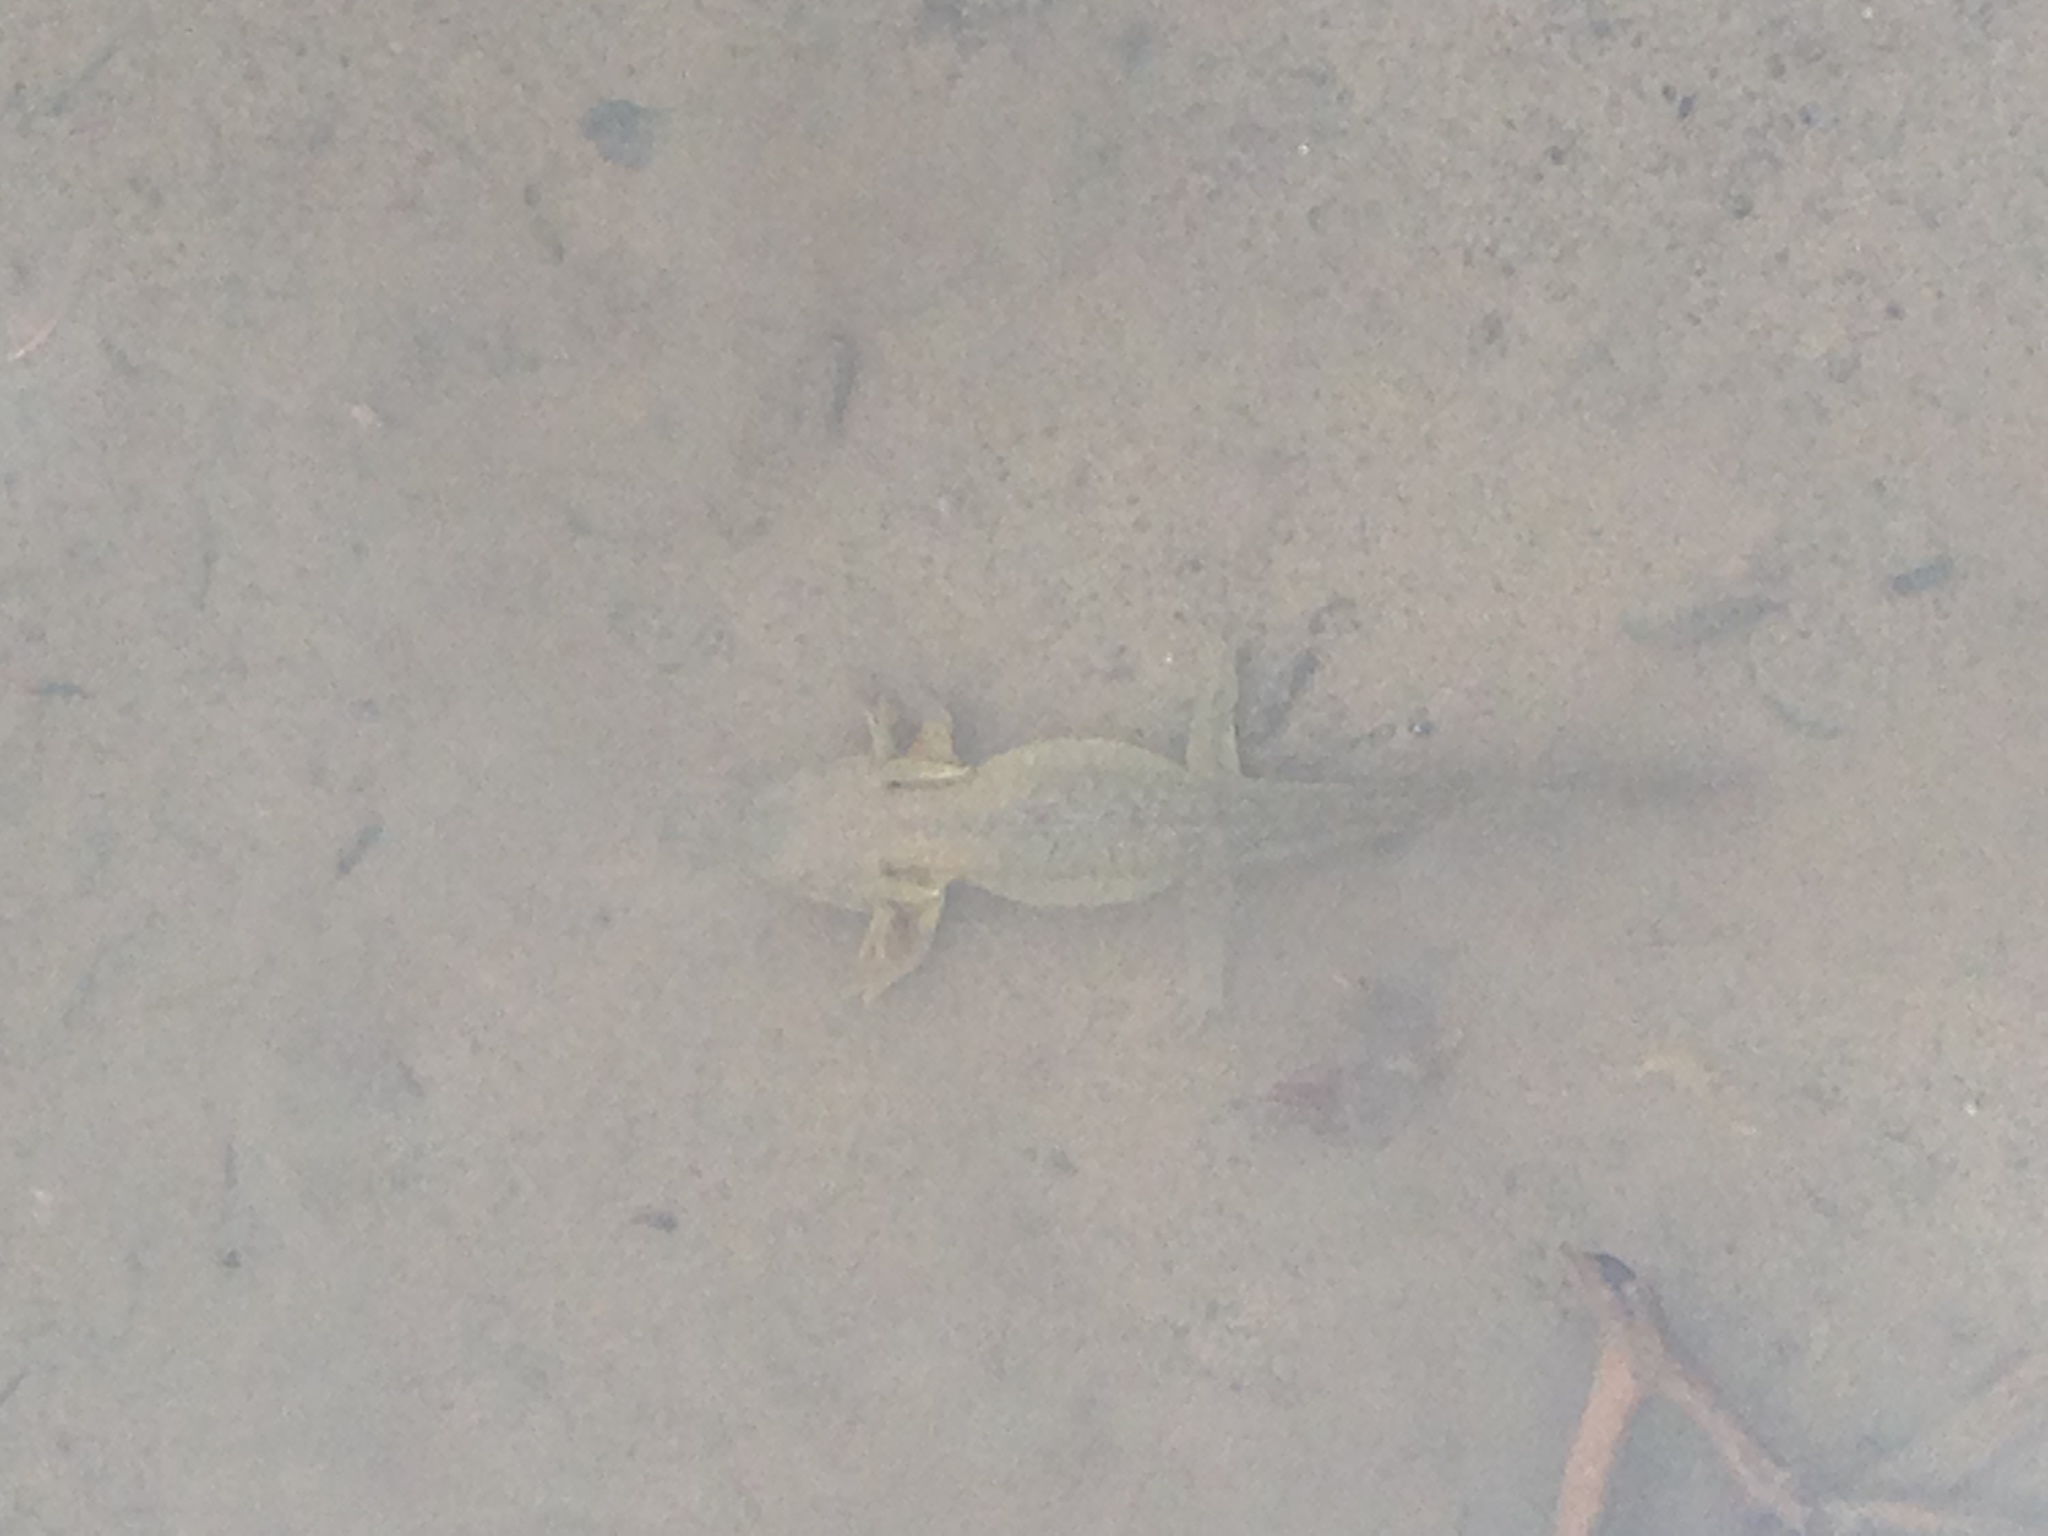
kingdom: Animalia
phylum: Chordata
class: Amphibia
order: Caudata
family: Ambystomatidae
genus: Ambystoma
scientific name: Ambystoma mavortium
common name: Western tiger salamander
